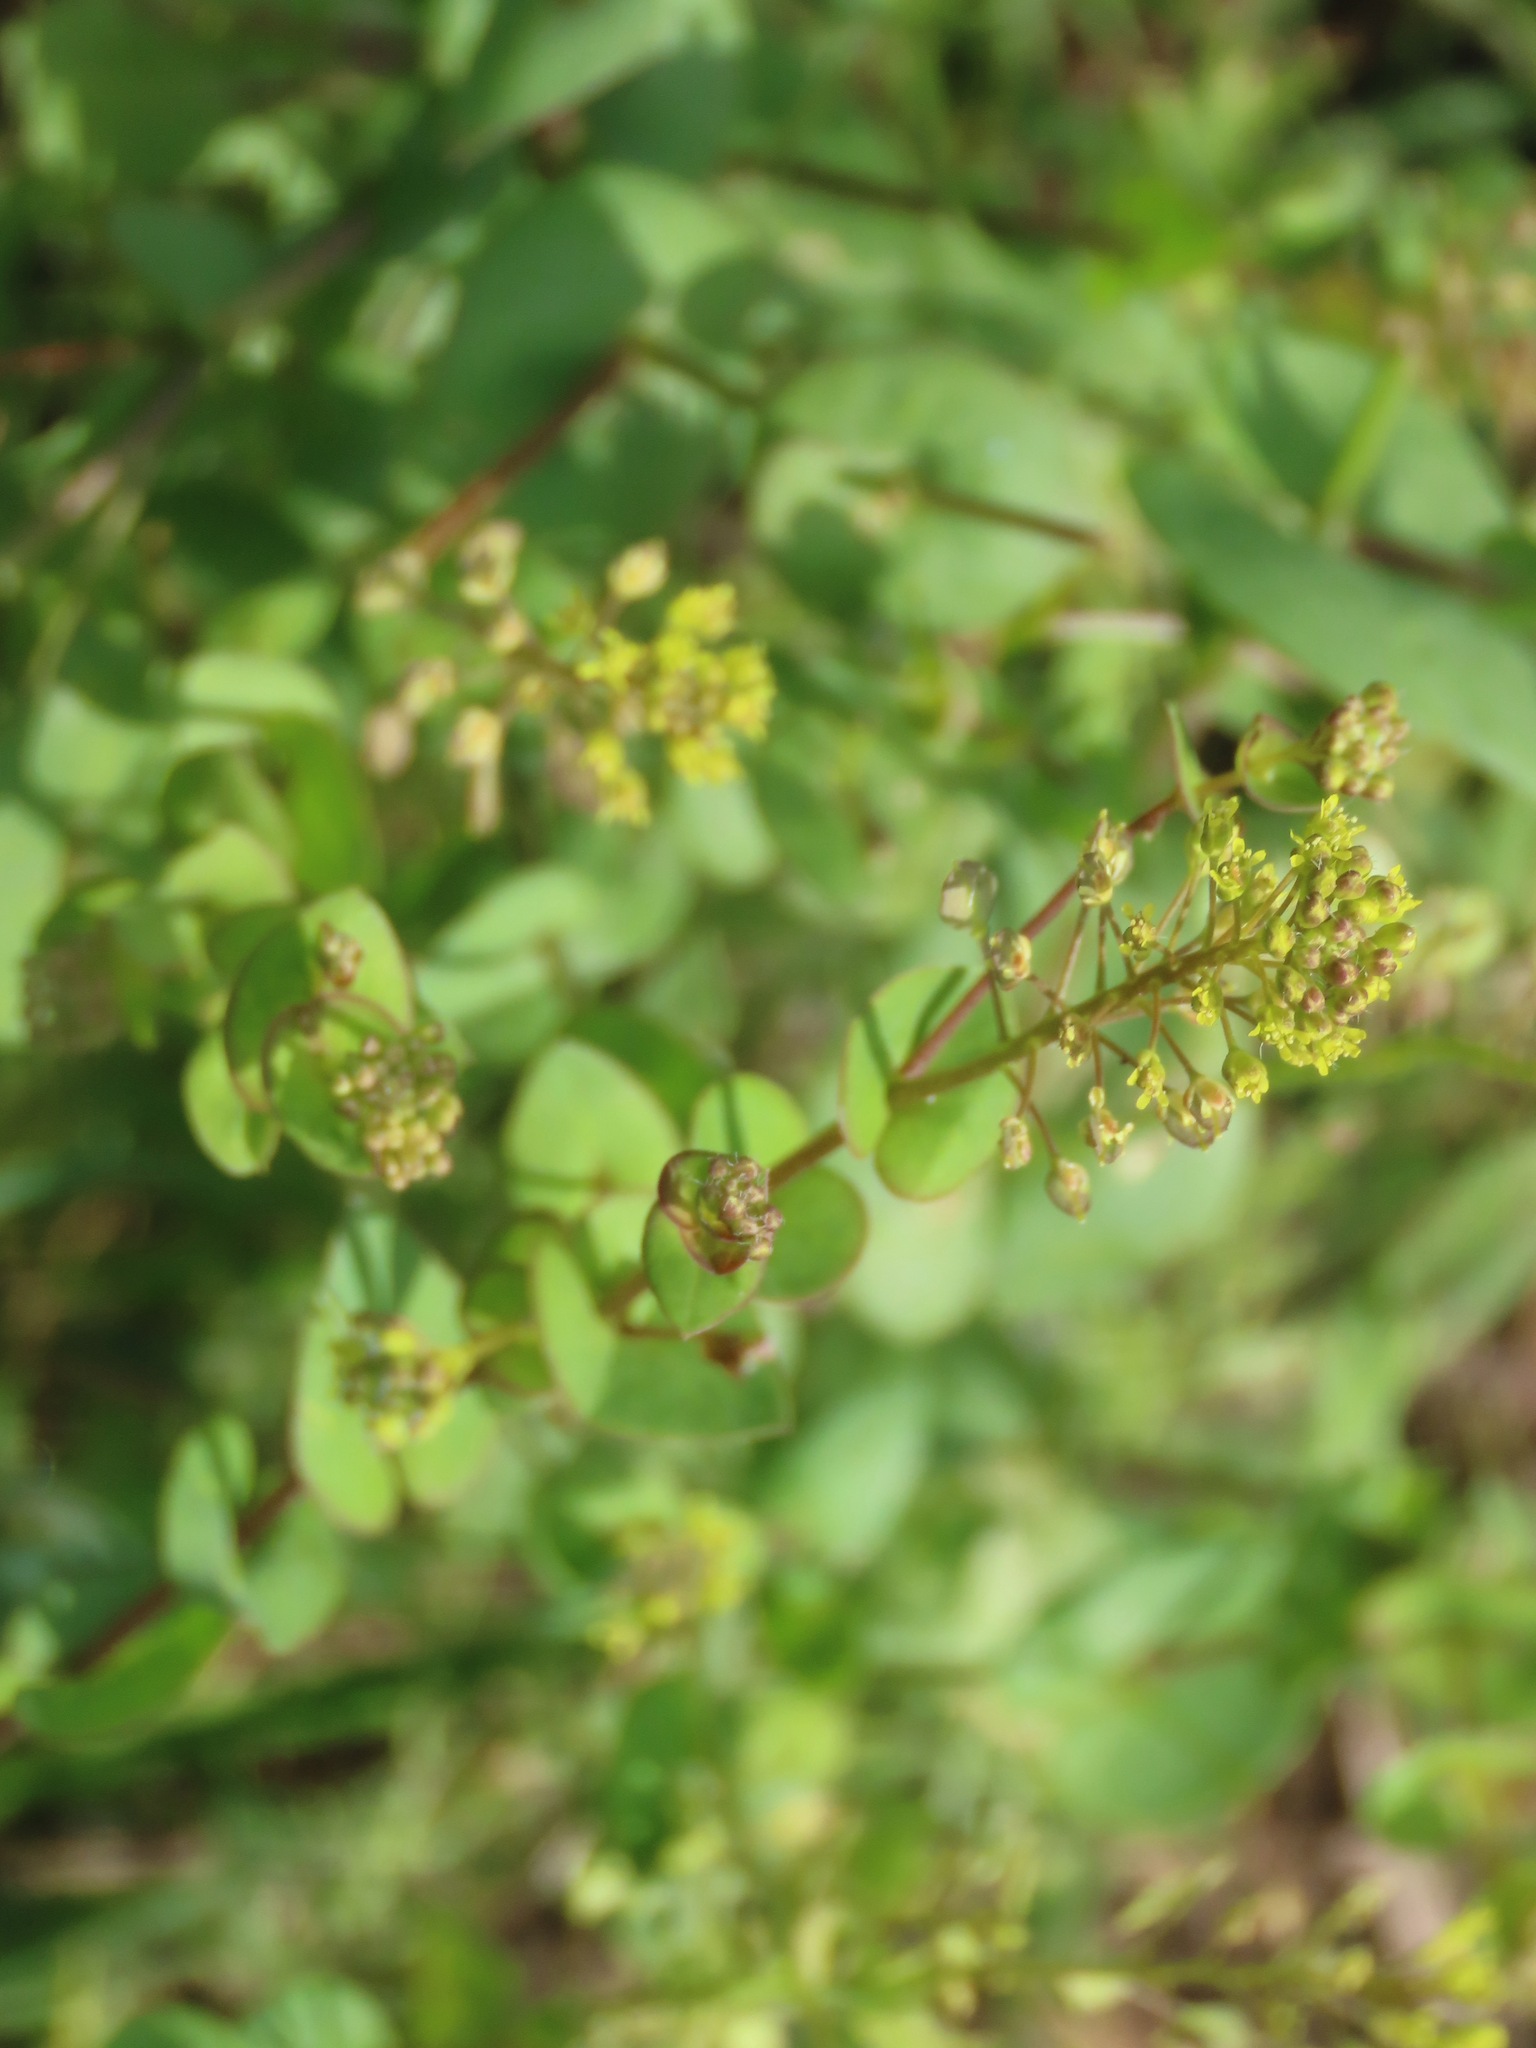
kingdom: Plantae
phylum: Tracheophyta
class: Magnoliopsida
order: Brassicales
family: Brassicaceae
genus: Lepidium
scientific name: Lepidium perfoliatum
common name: Perfoliate pepperwort
